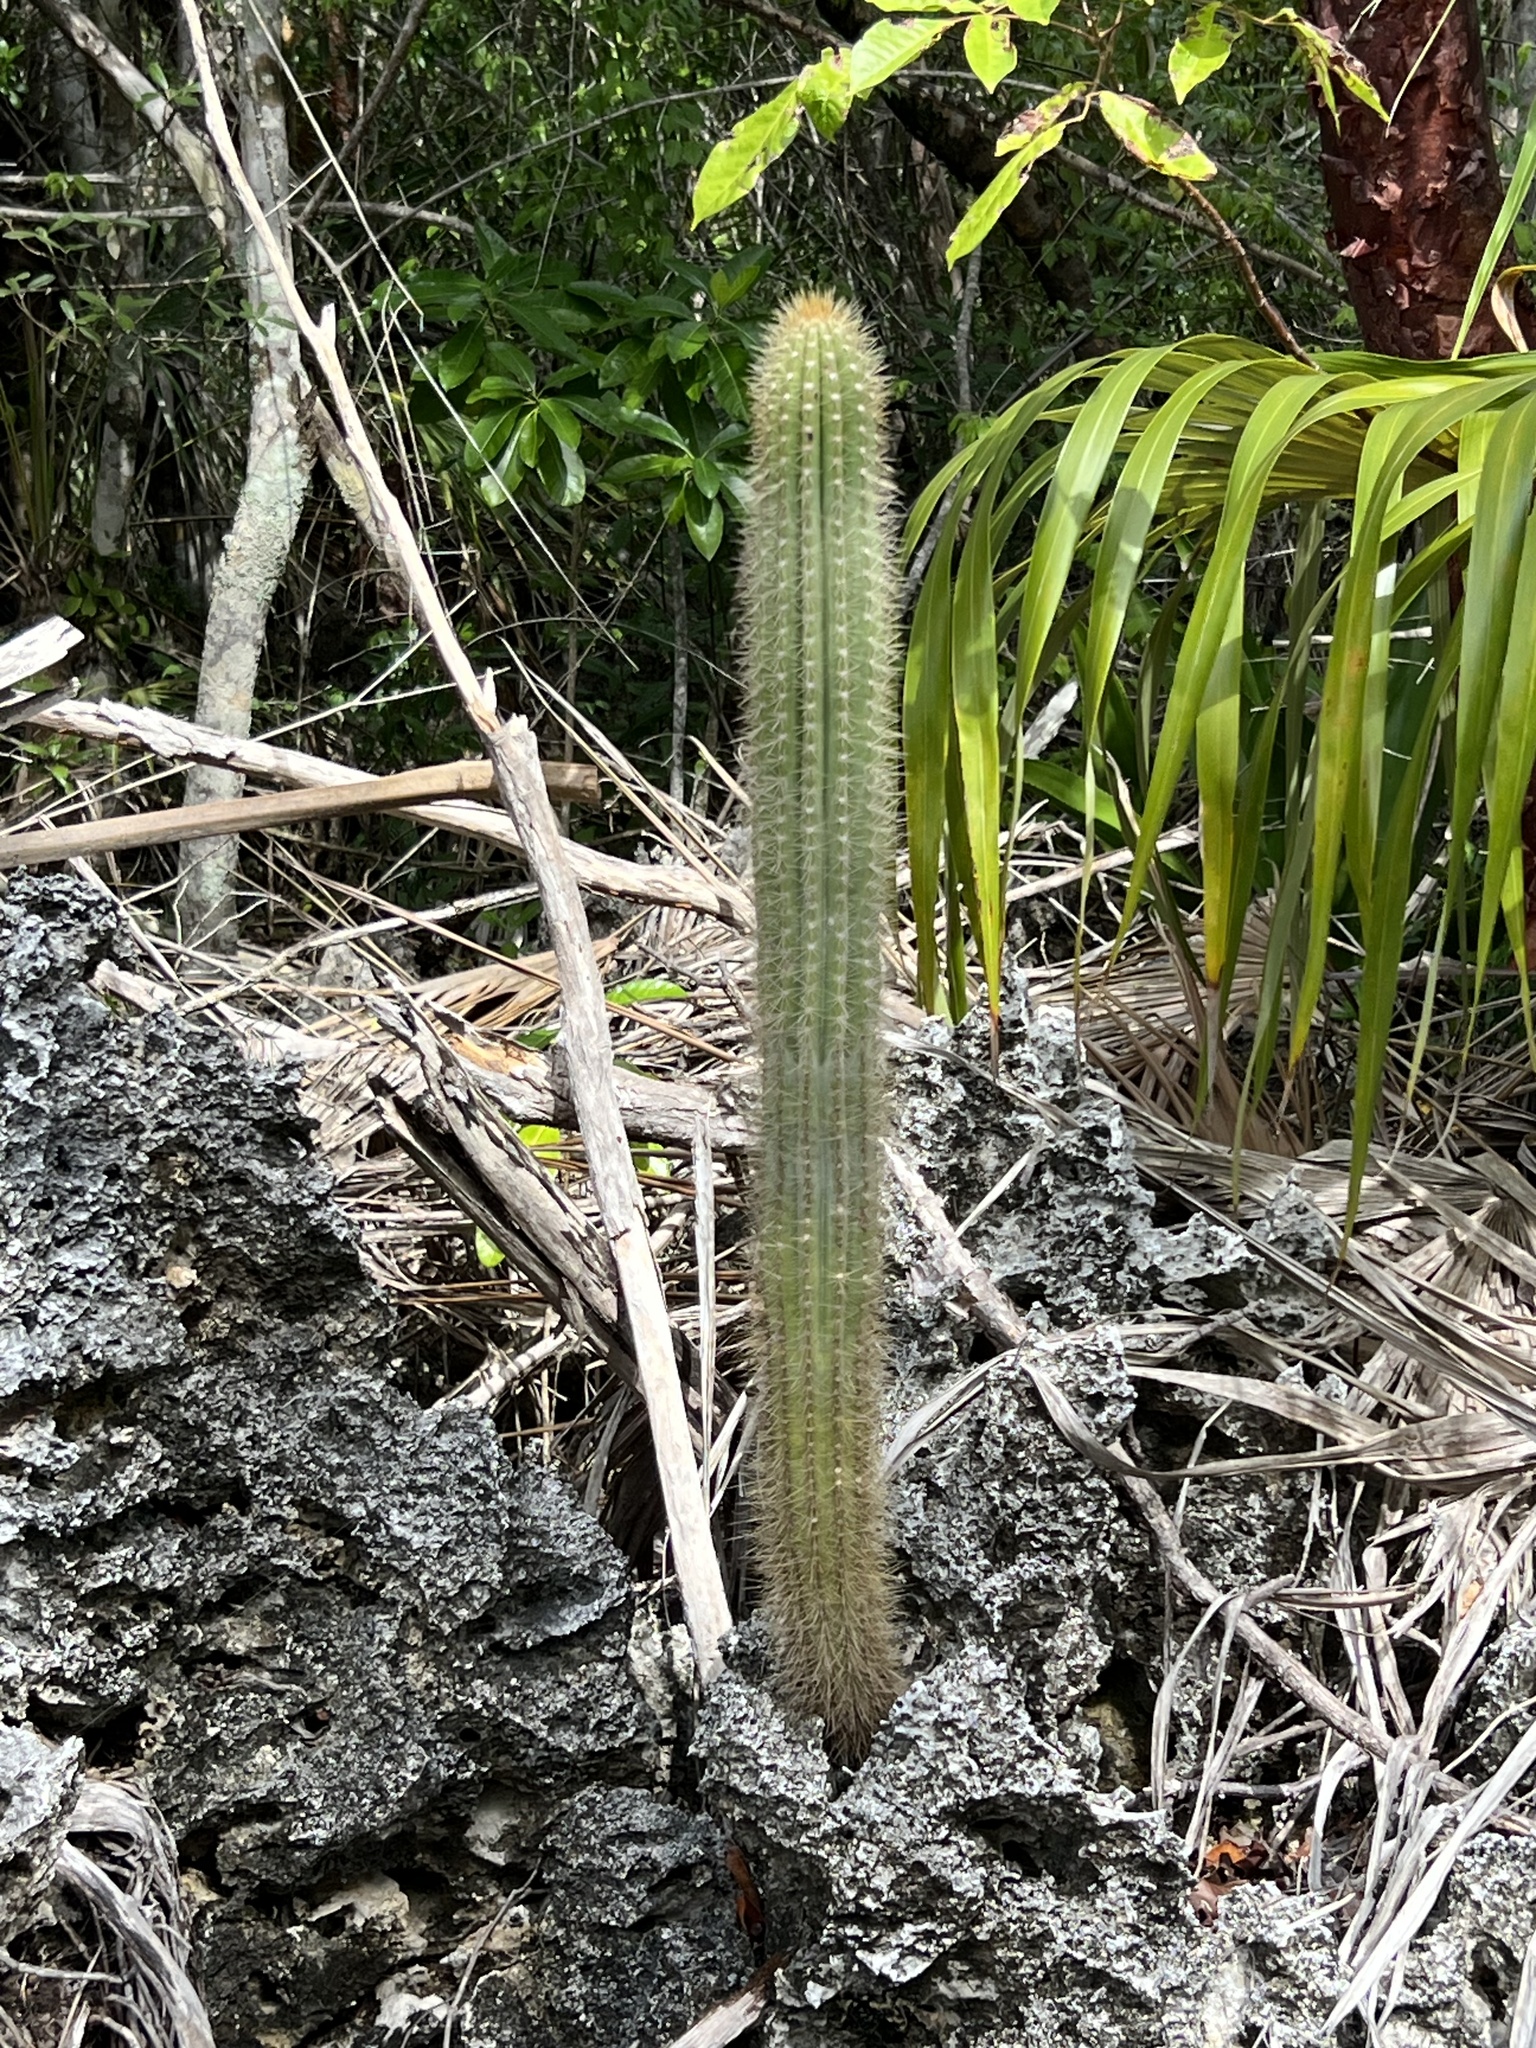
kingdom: Plantae
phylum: Tracheophyta
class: Magnoliopsida
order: Caryophyllales
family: Cactaceae
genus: Pilosocereus
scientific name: Pilosocereus jamaicensis
